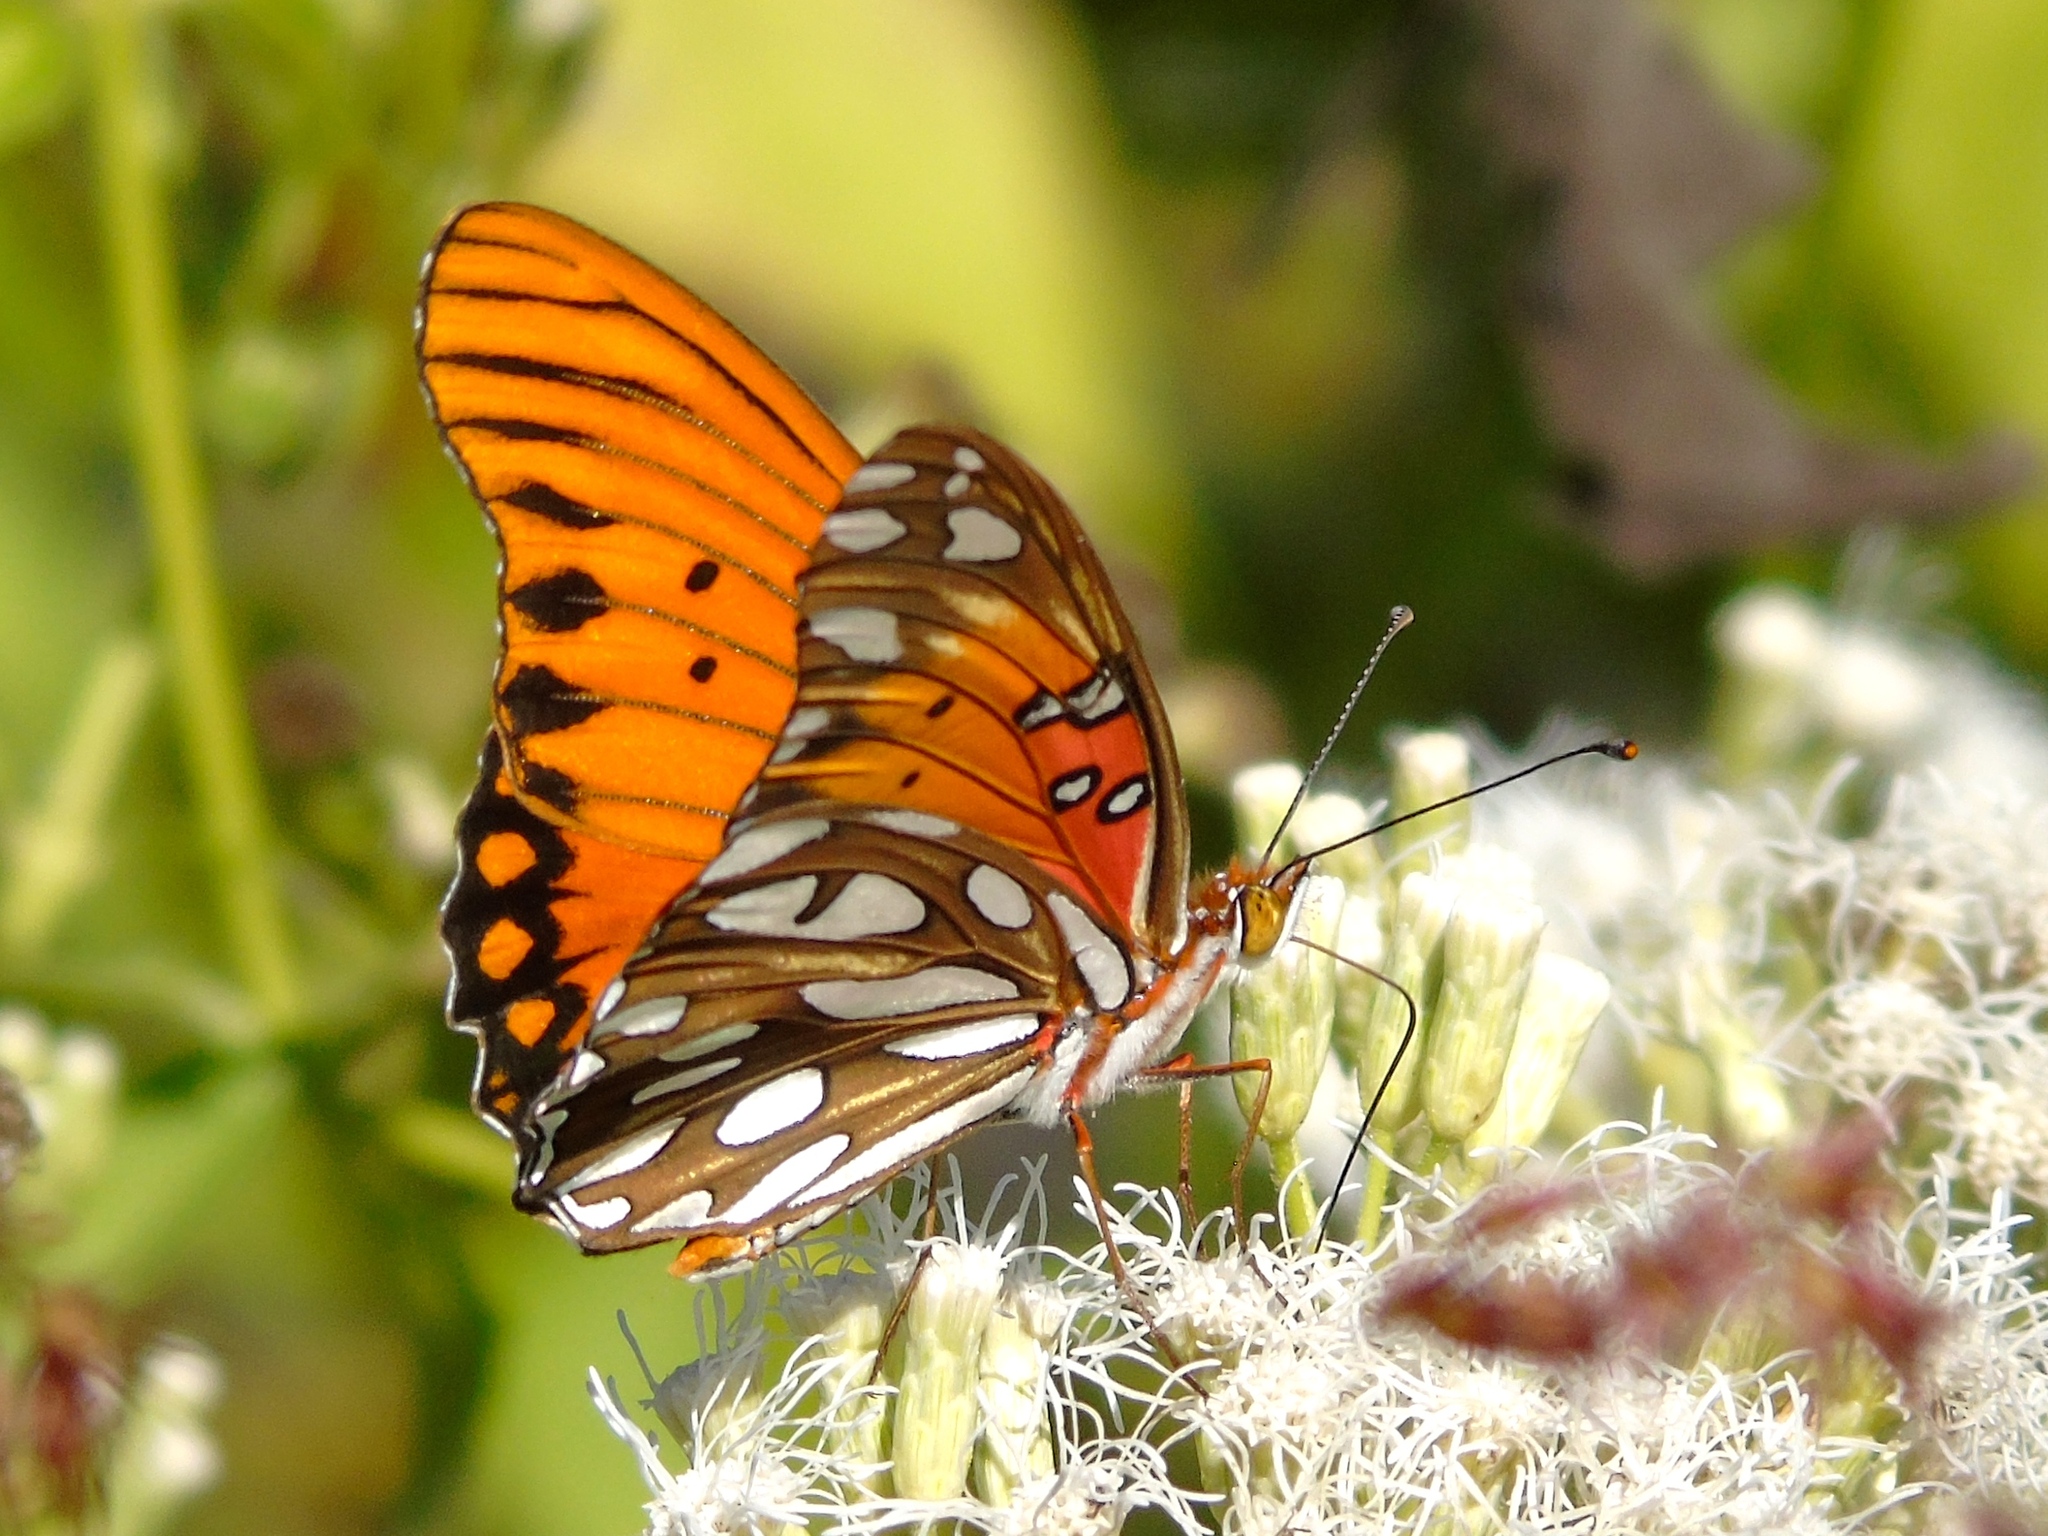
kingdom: Animalia
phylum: Arthropoda
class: Insecta
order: Lepidoptera
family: Nymphalidae
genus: Dione
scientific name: Dione vanillae
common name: Gulf fritillary
